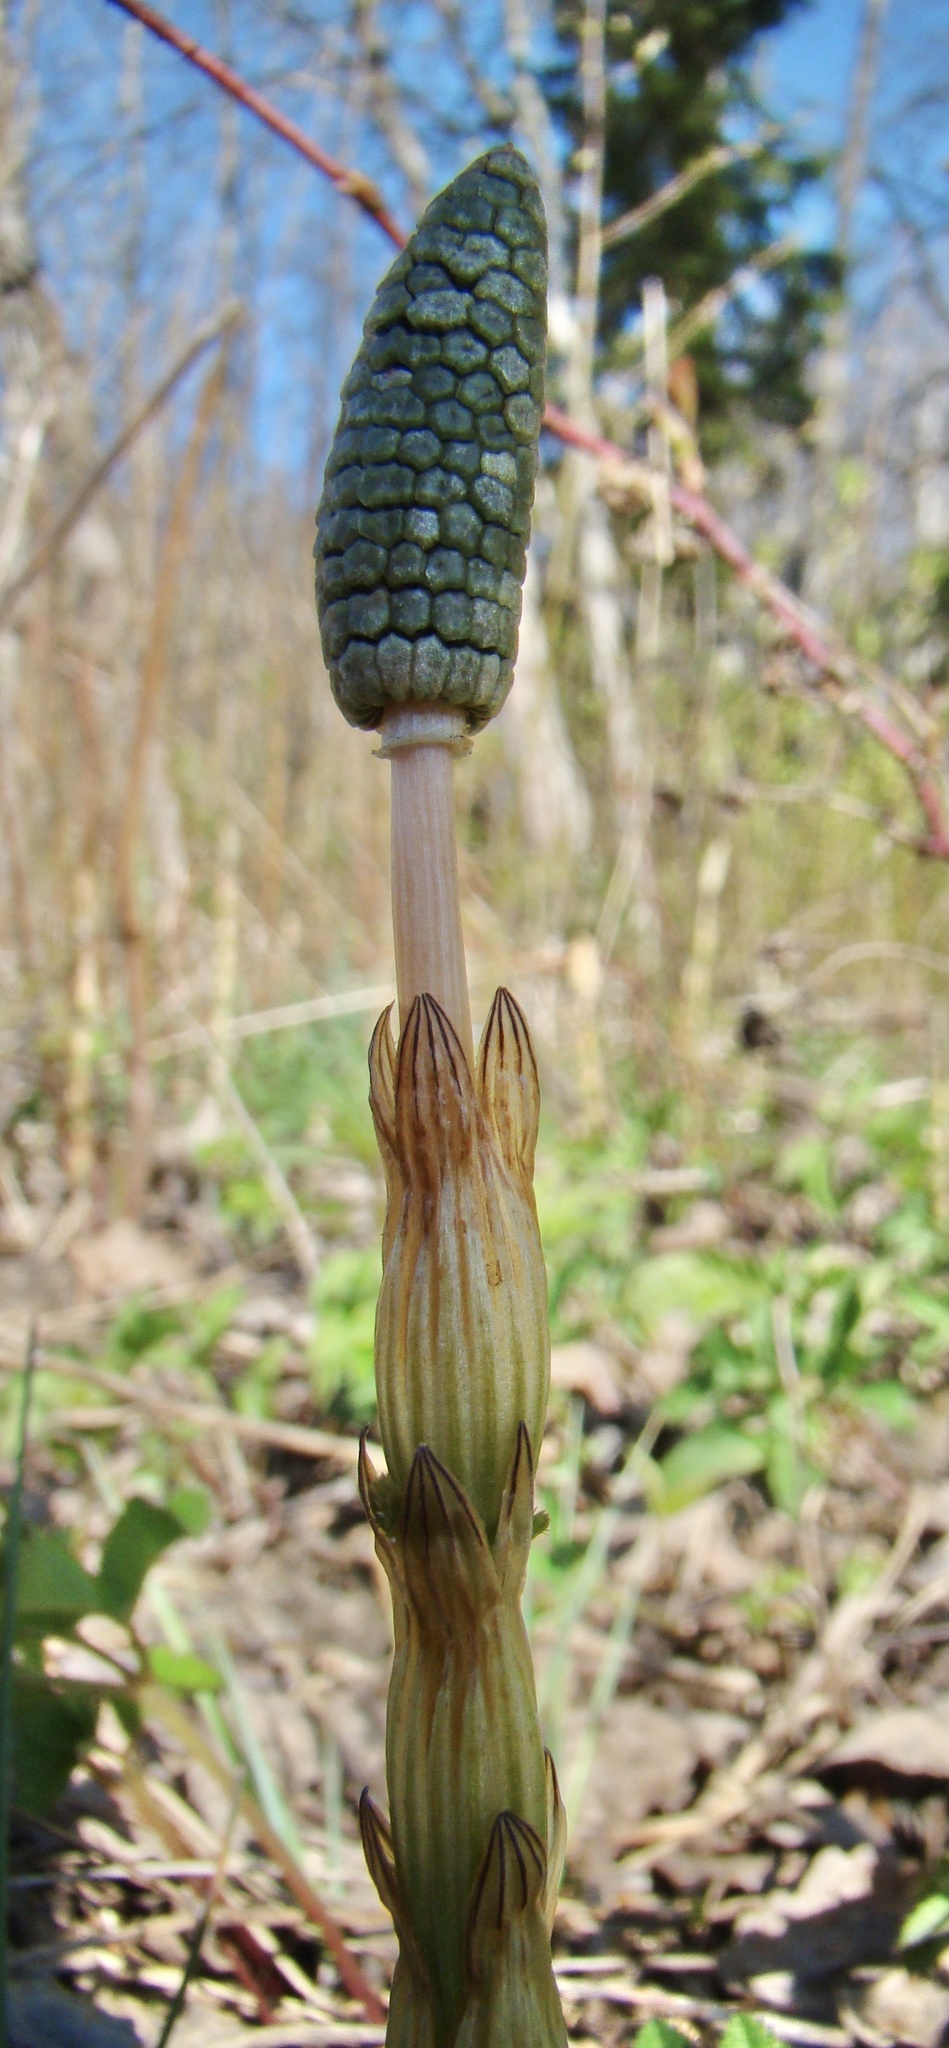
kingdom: Plantae
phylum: Tracheophyta
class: Polypodiopsida
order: Equisetales
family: Equisetaceae
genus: Equisetum
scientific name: Equisetum sylvaticum
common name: Wood horsetail
